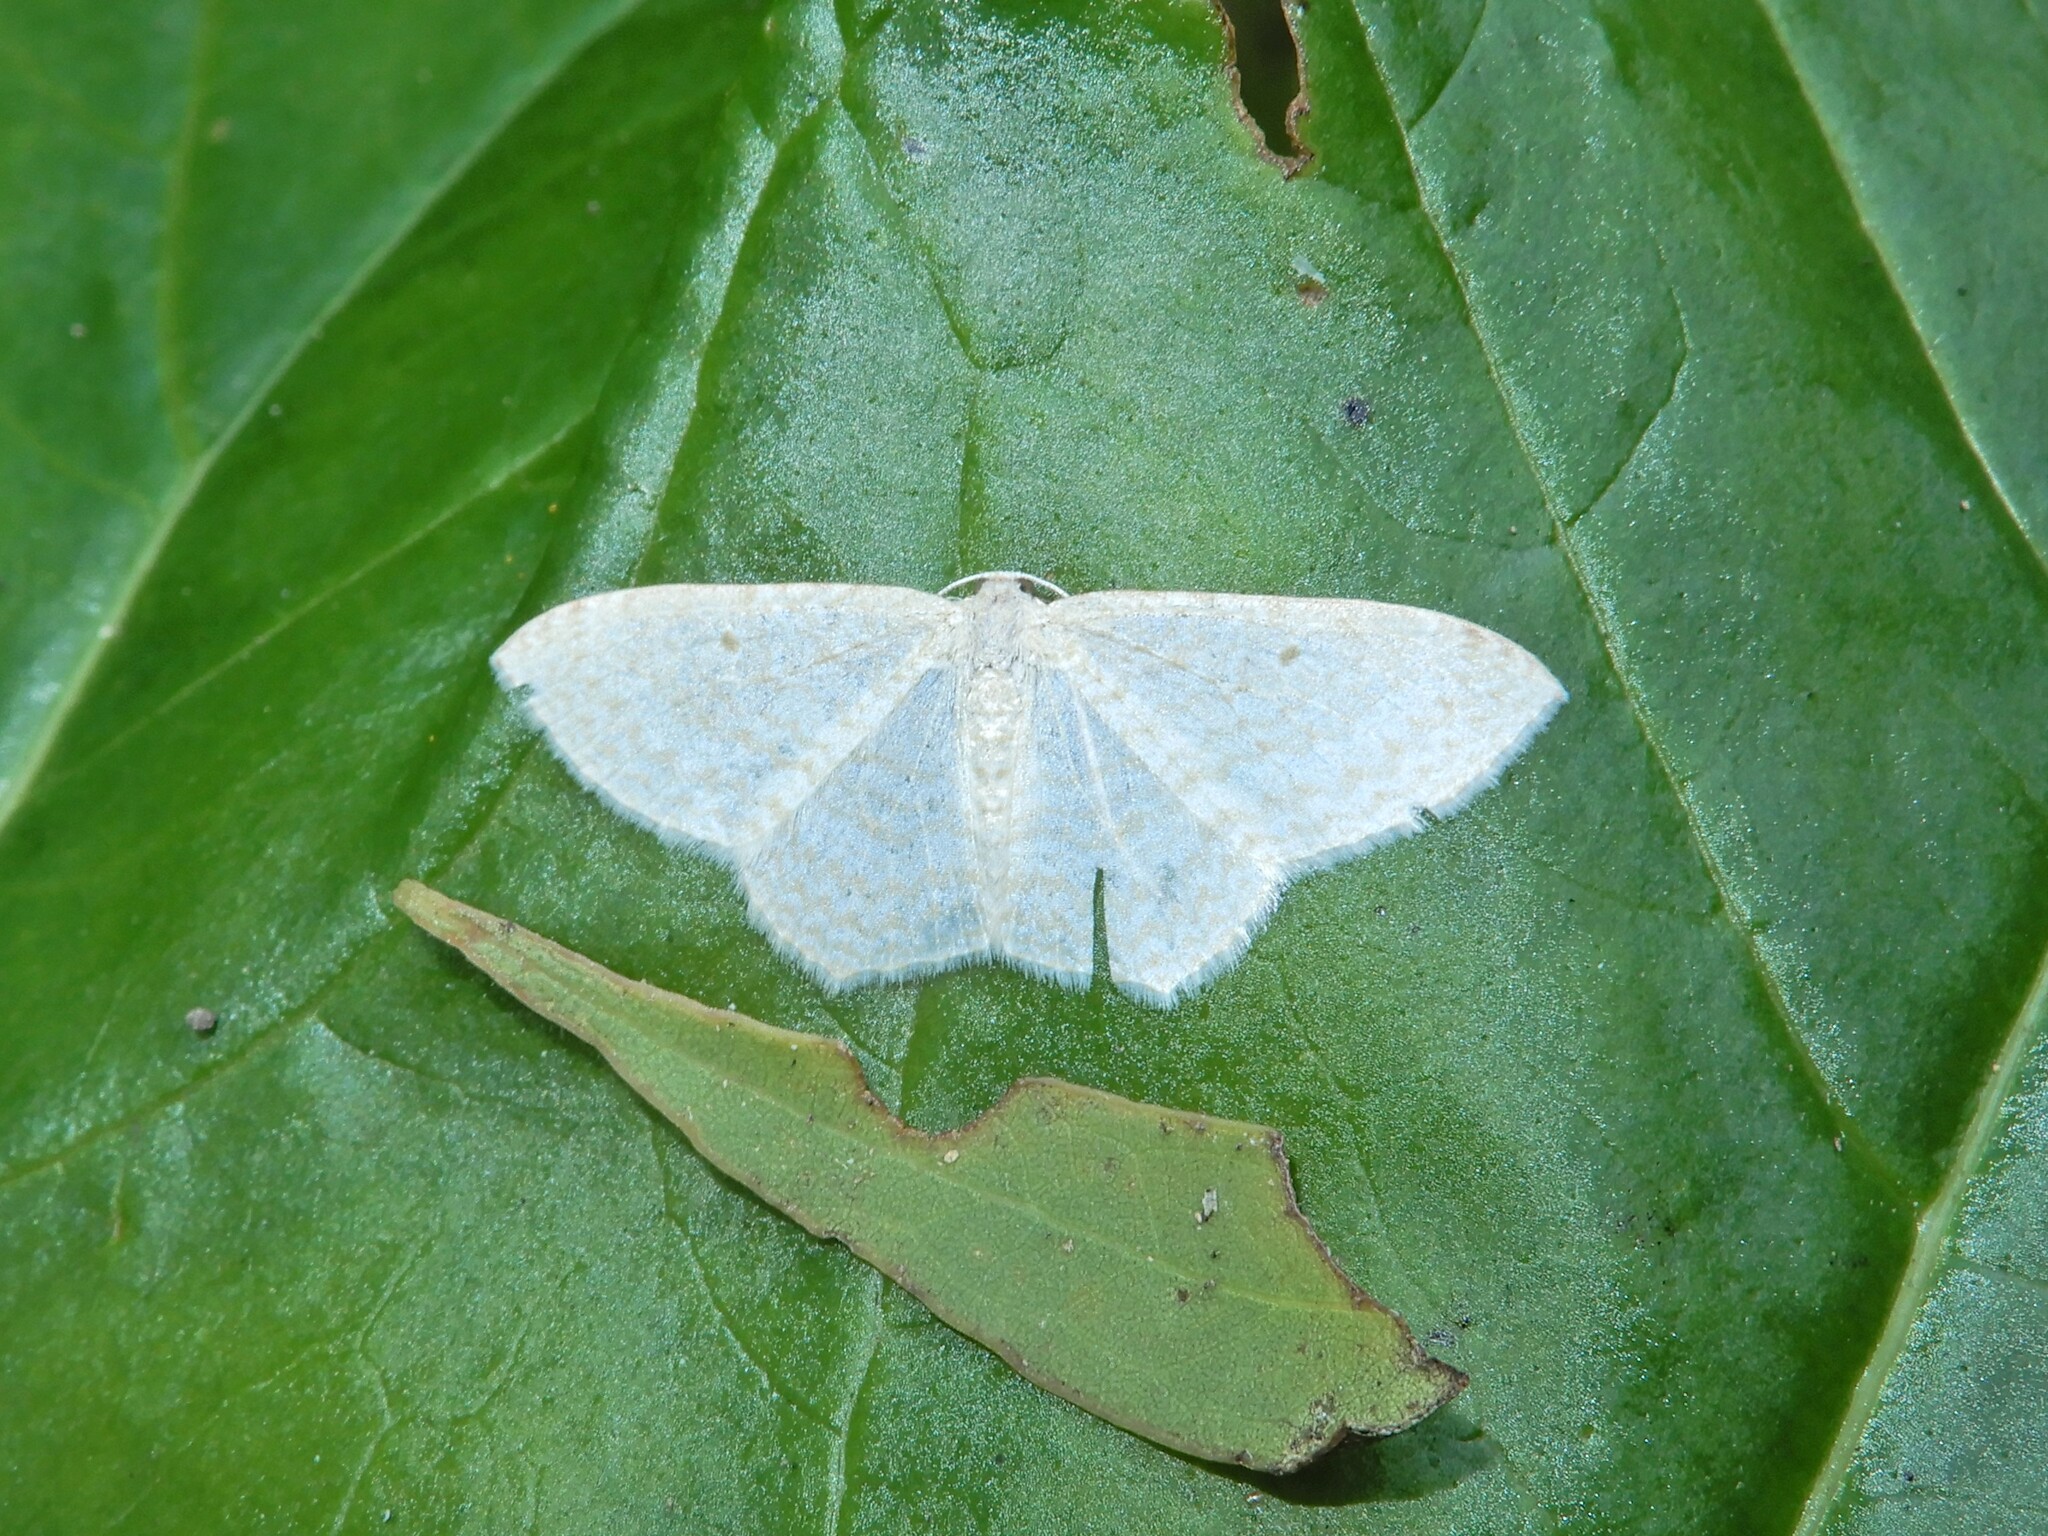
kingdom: Animalia
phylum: Arthropoda
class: Insecta
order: Lepidoptera
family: Geometridae
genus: Poecilasthena
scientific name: Poecilasthena pulchraria
